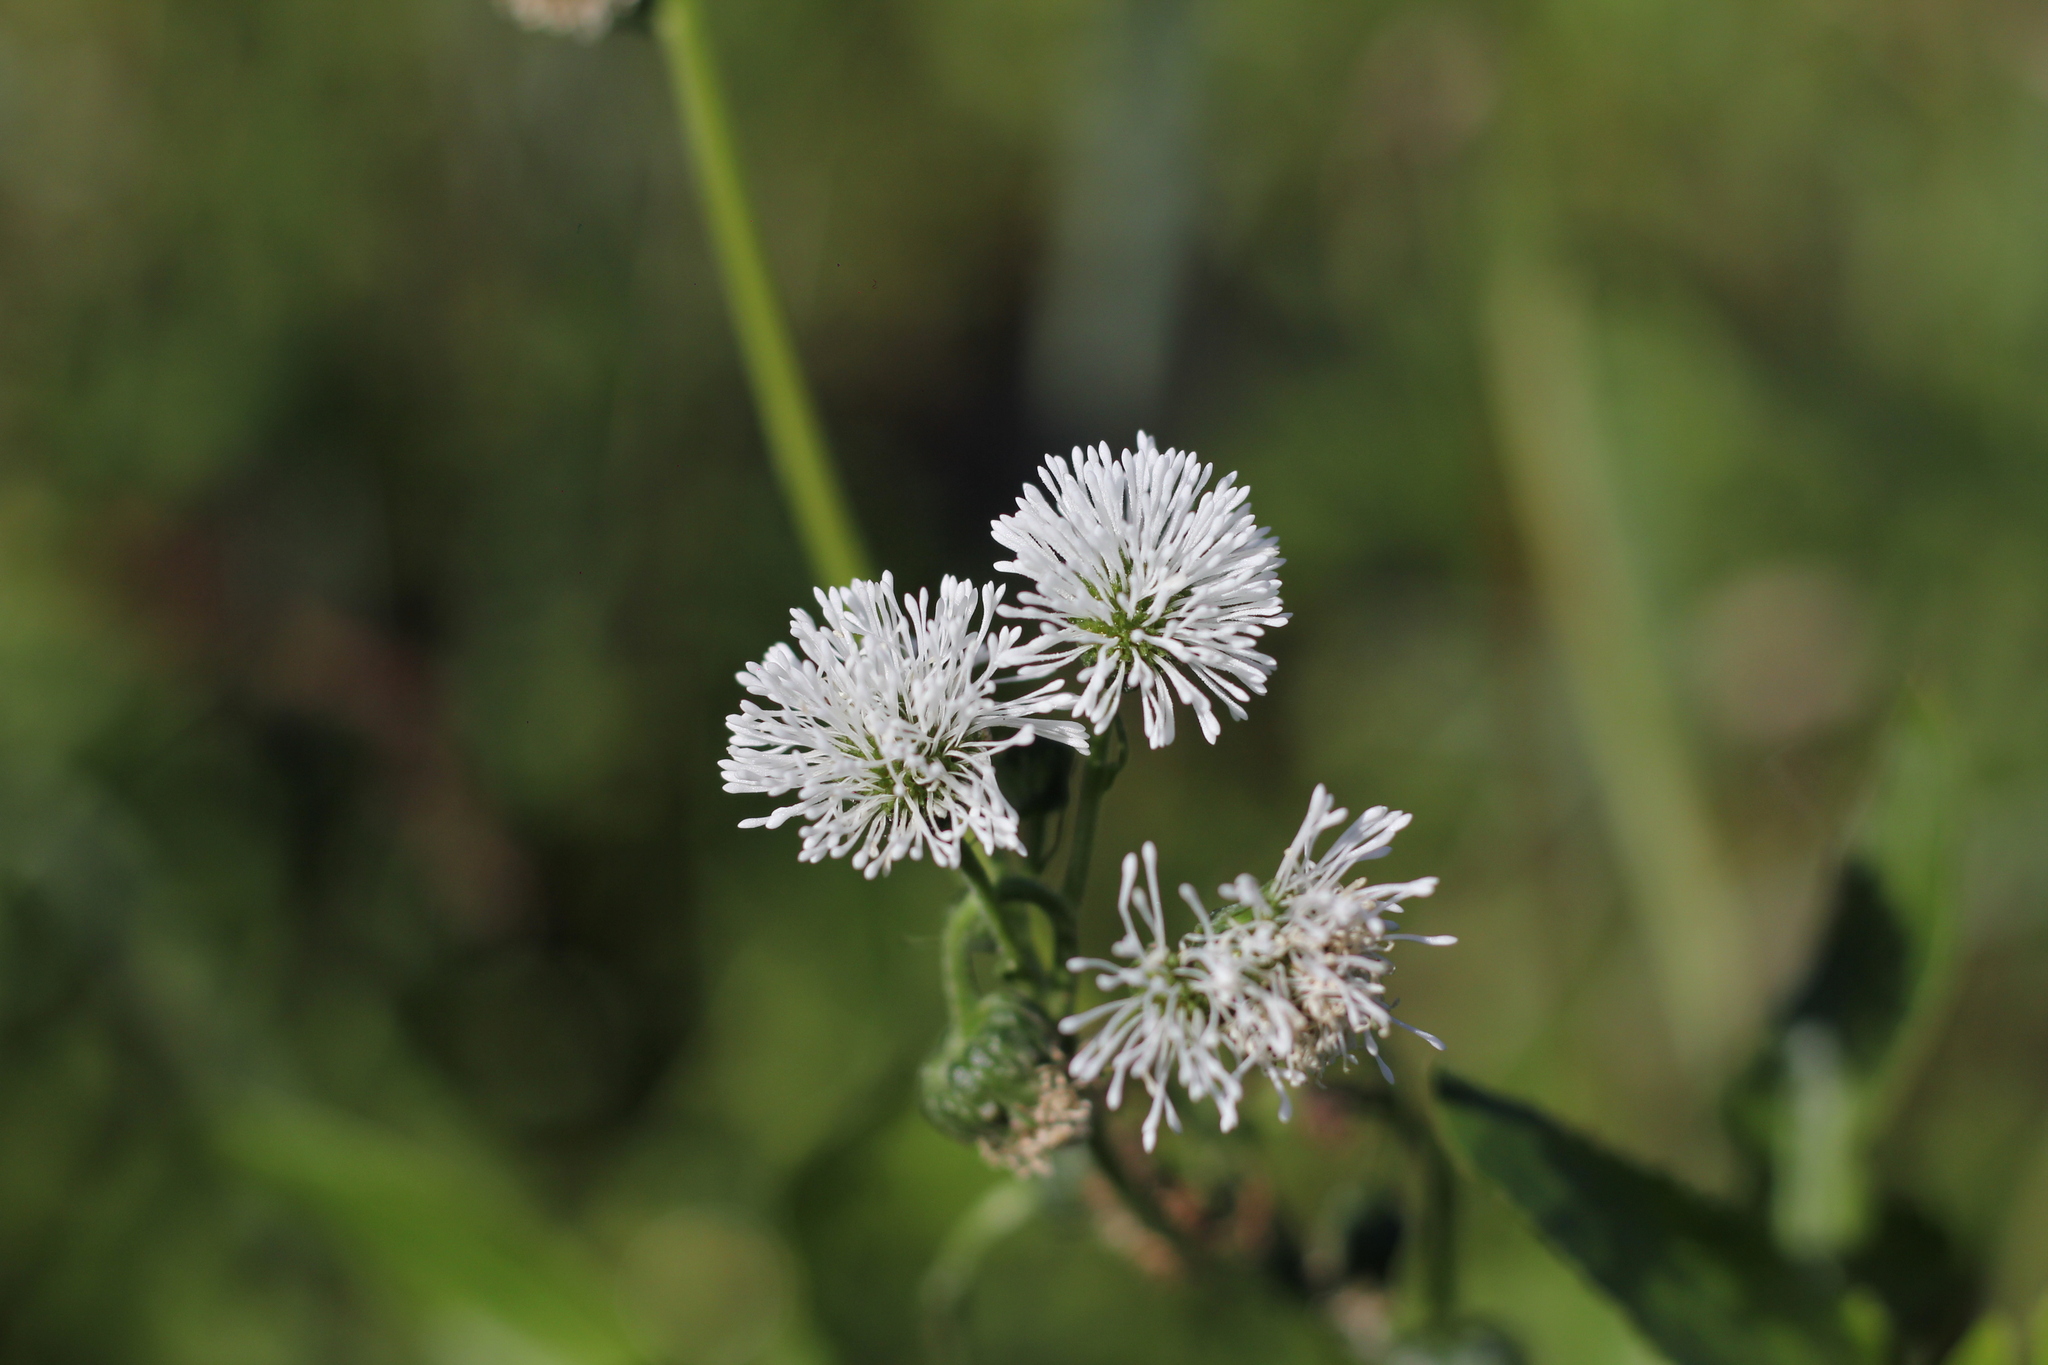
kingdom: Plantae
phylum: Tracheophyta
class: Magnoliopsida
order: Asterales
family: Asteraceae
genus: Gymnocoronis
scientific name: Gymnocoronis spilanthoides
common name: Senegal teaplant
